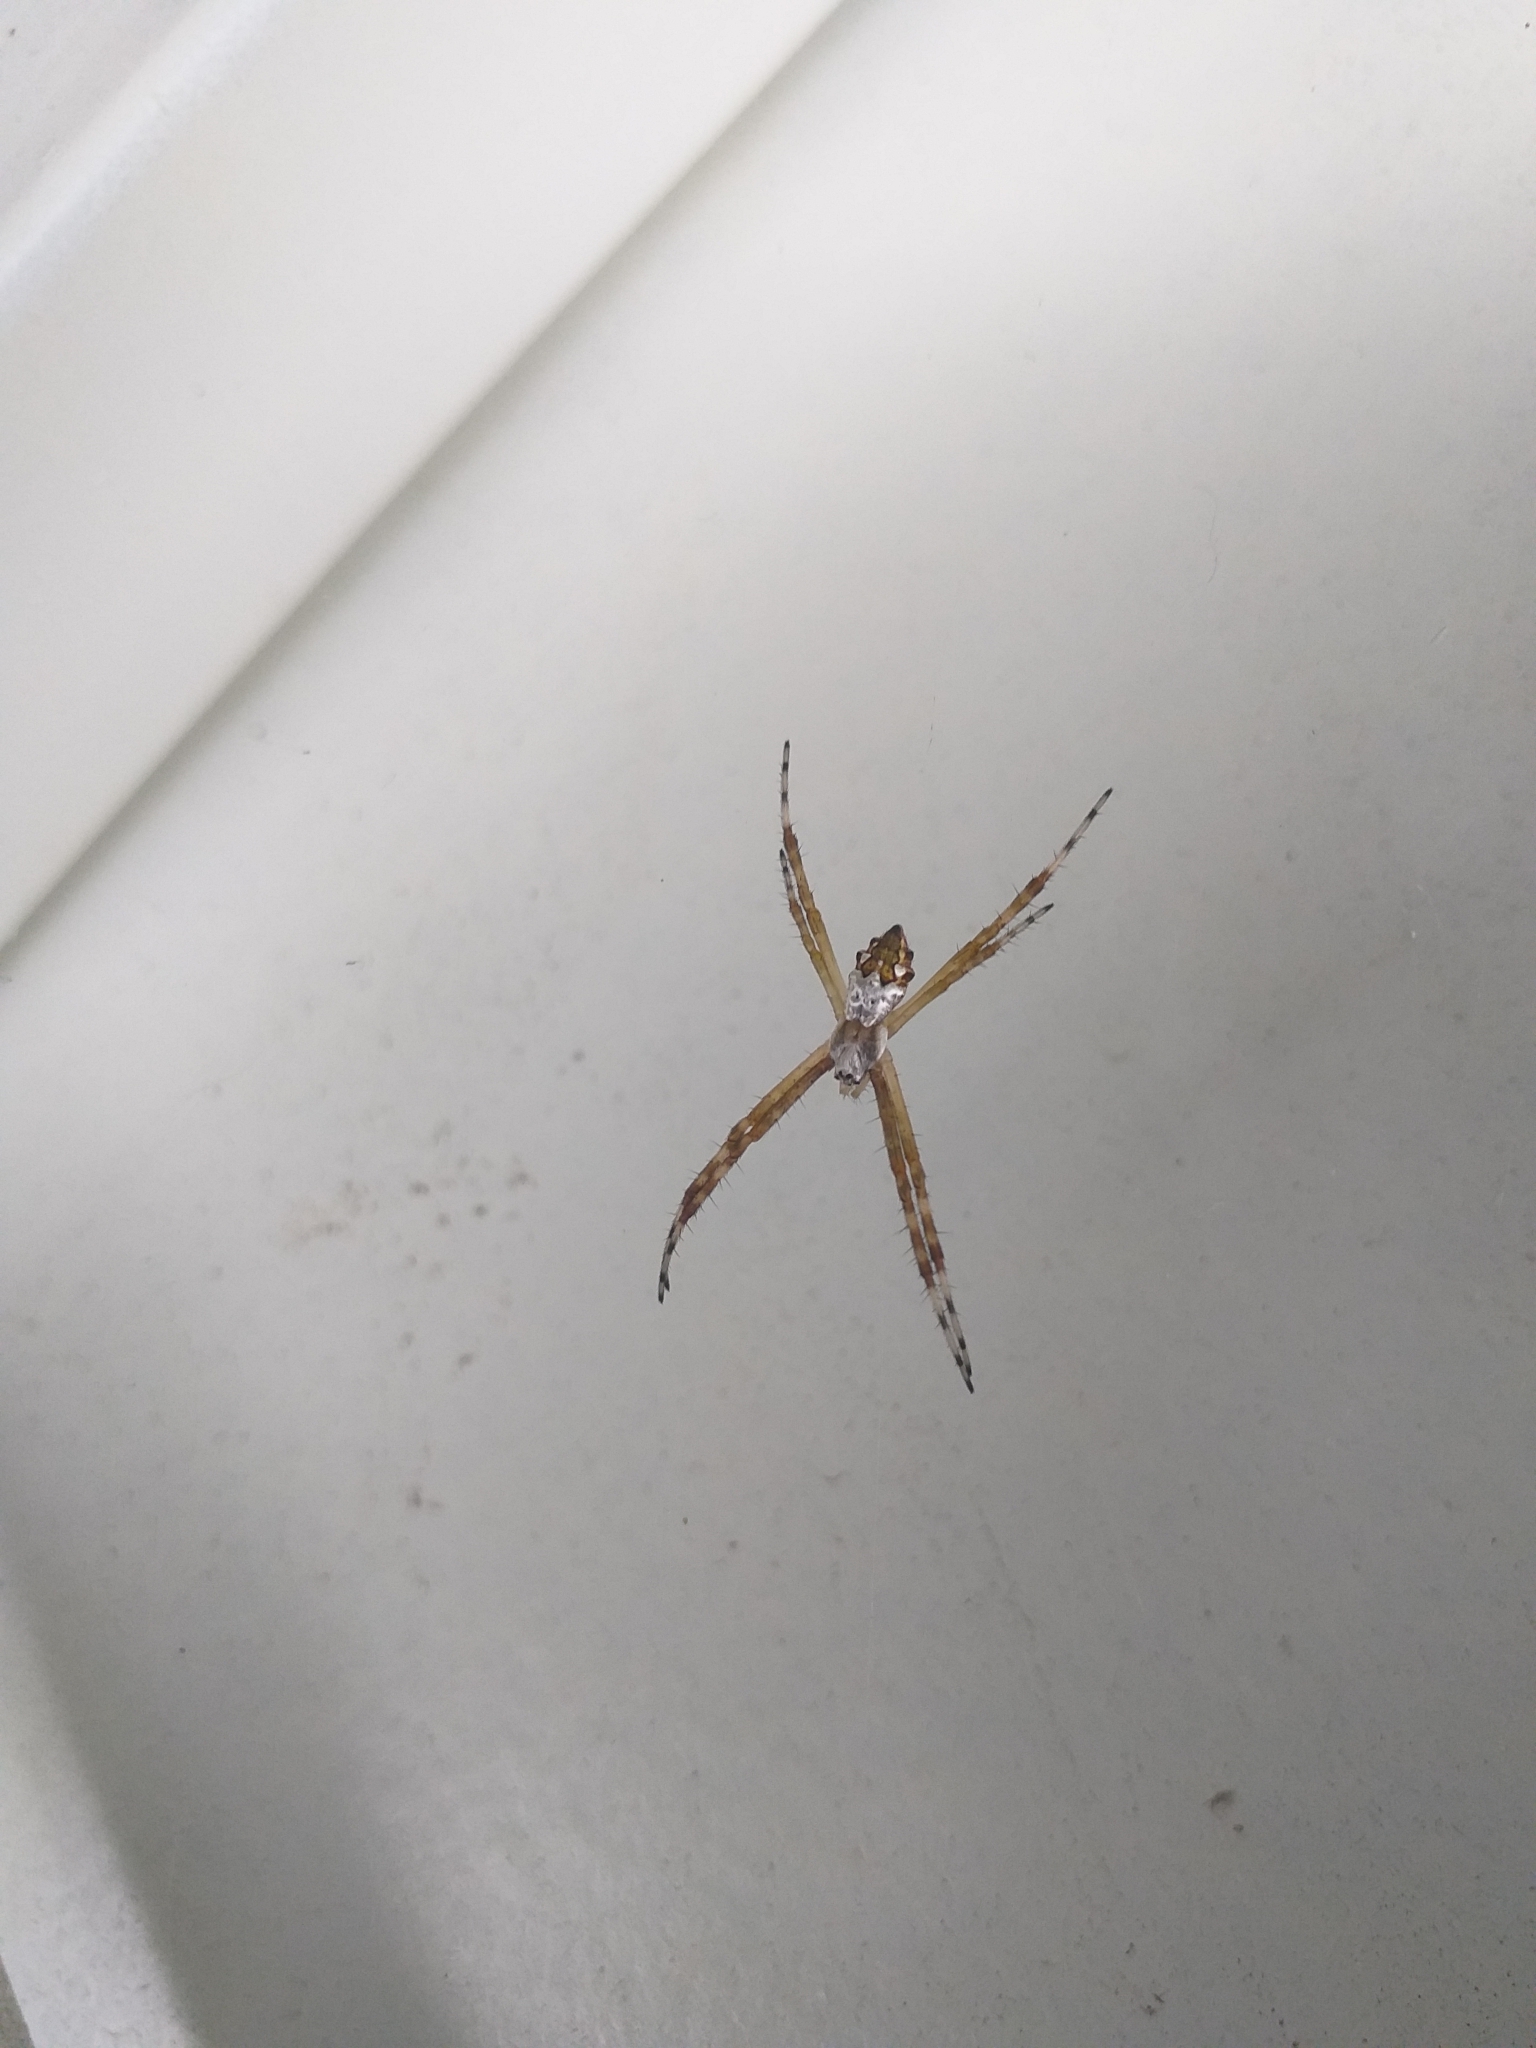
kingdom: Animalia
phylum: Arthropoda
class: Arachnida
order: Araneae
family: Araneidae
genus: Argiope
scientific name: Argiope argentata
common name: Orb weavers
